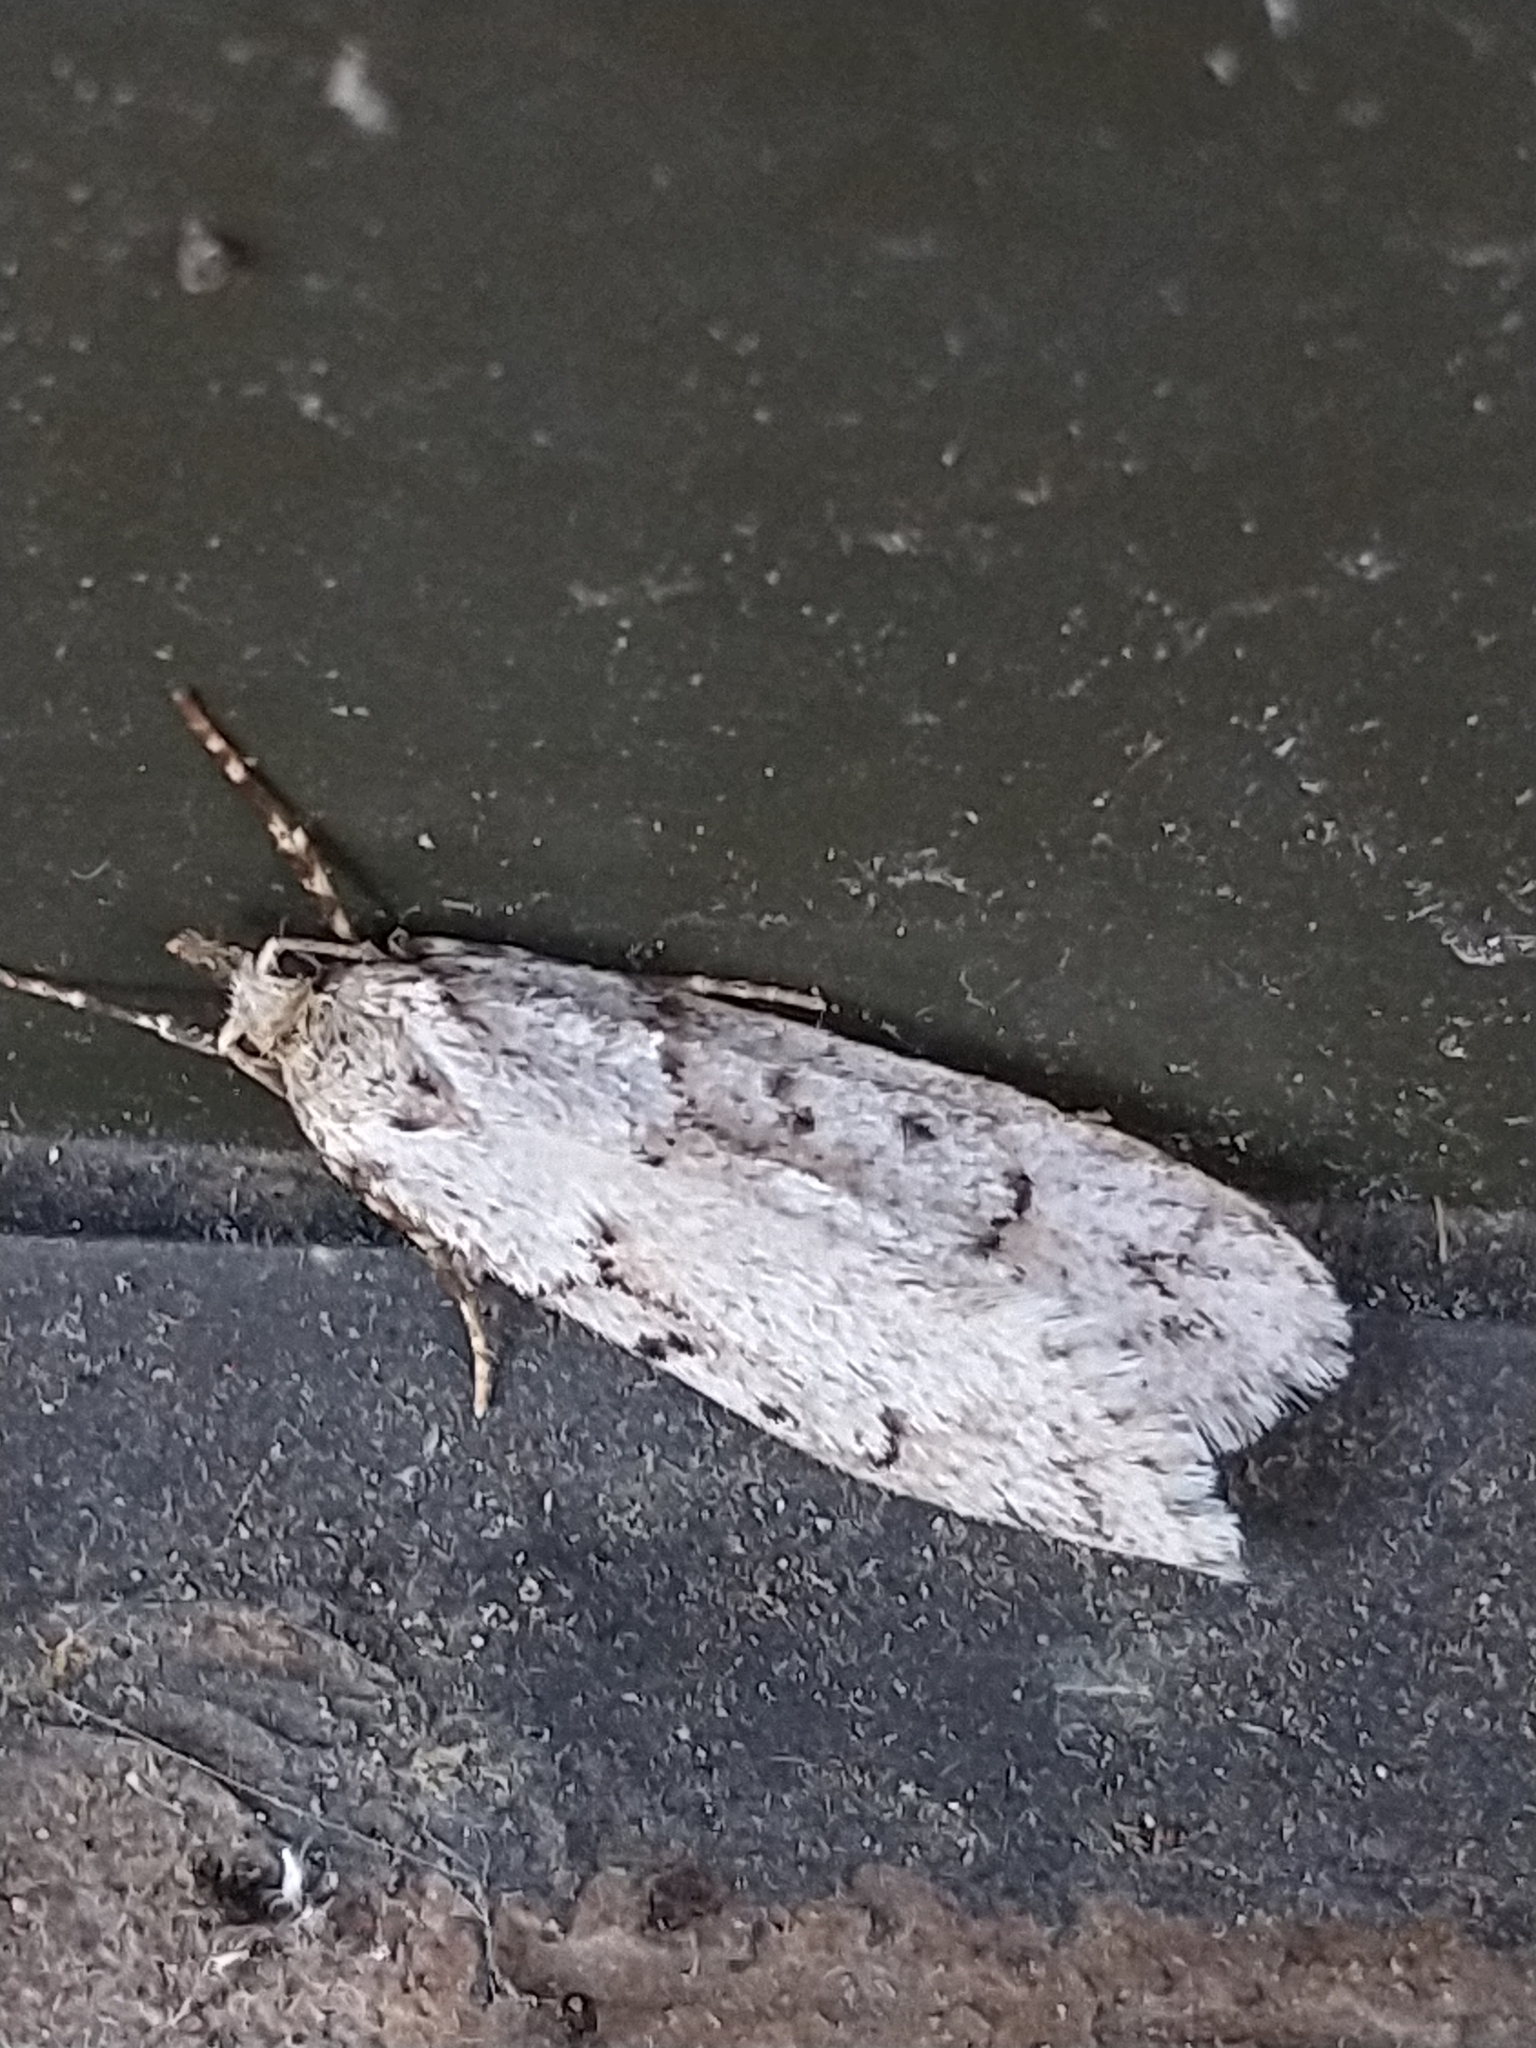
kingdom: Animalia
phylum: Arthropoda
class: Insecta
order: Lepidoptera
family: Lypusidae
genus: Diurnea
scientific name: Diurnea fagella
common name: March tubic
